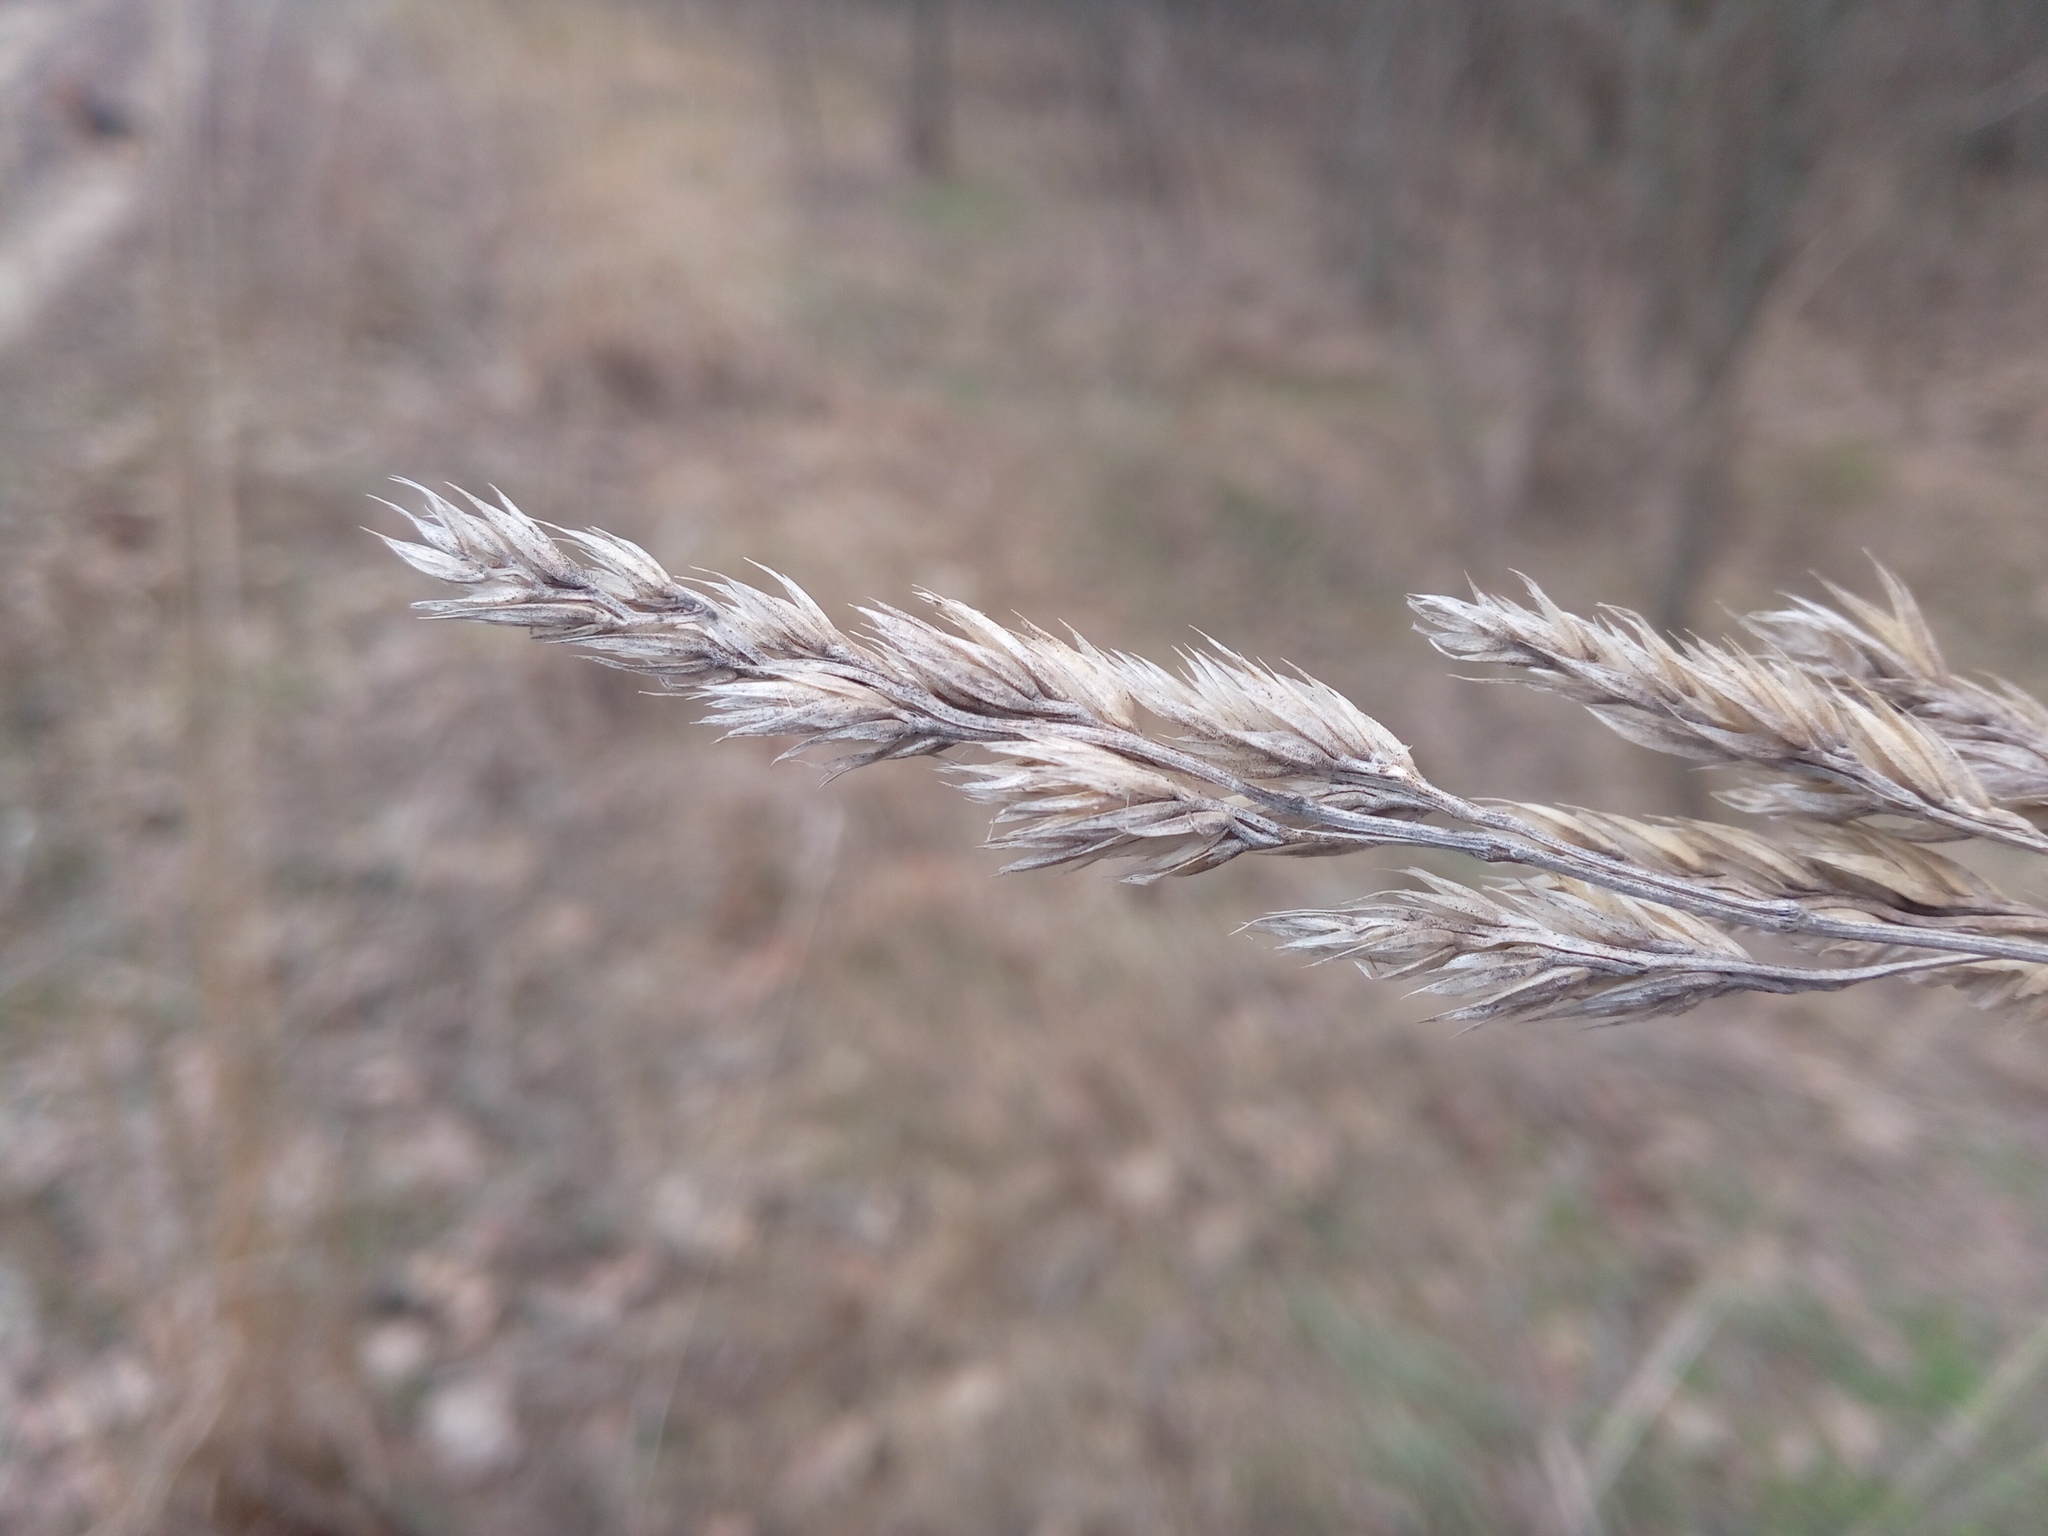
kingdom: Plantae
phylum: Tracheophyta
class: Liliopsida
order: Poales
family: Poaceae
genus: Dactylis
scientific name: Dactylis glomerata
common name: Orchardgrass
